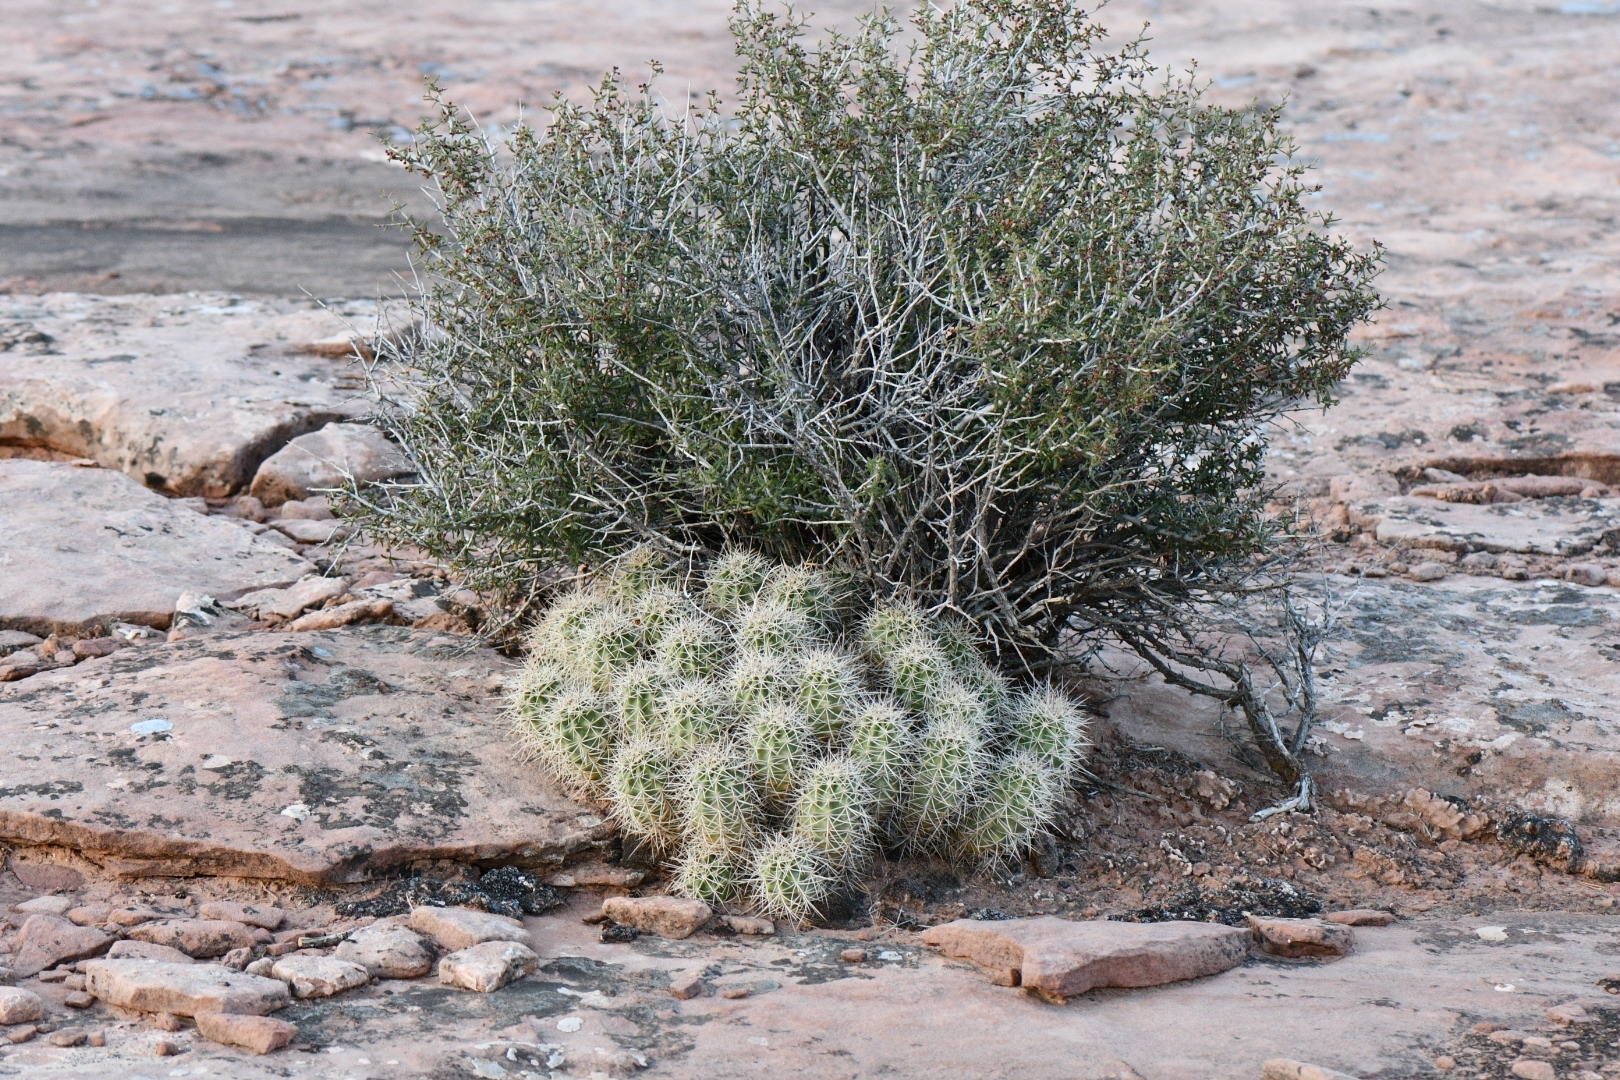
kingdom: Plantae
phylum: Tracheophyta
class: Magnoliopsida
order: Caryophyllales
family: Cactaceae
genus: Echinocereus
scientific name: Echinocereus triglochidiatus
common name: Claretcup hedgehog
